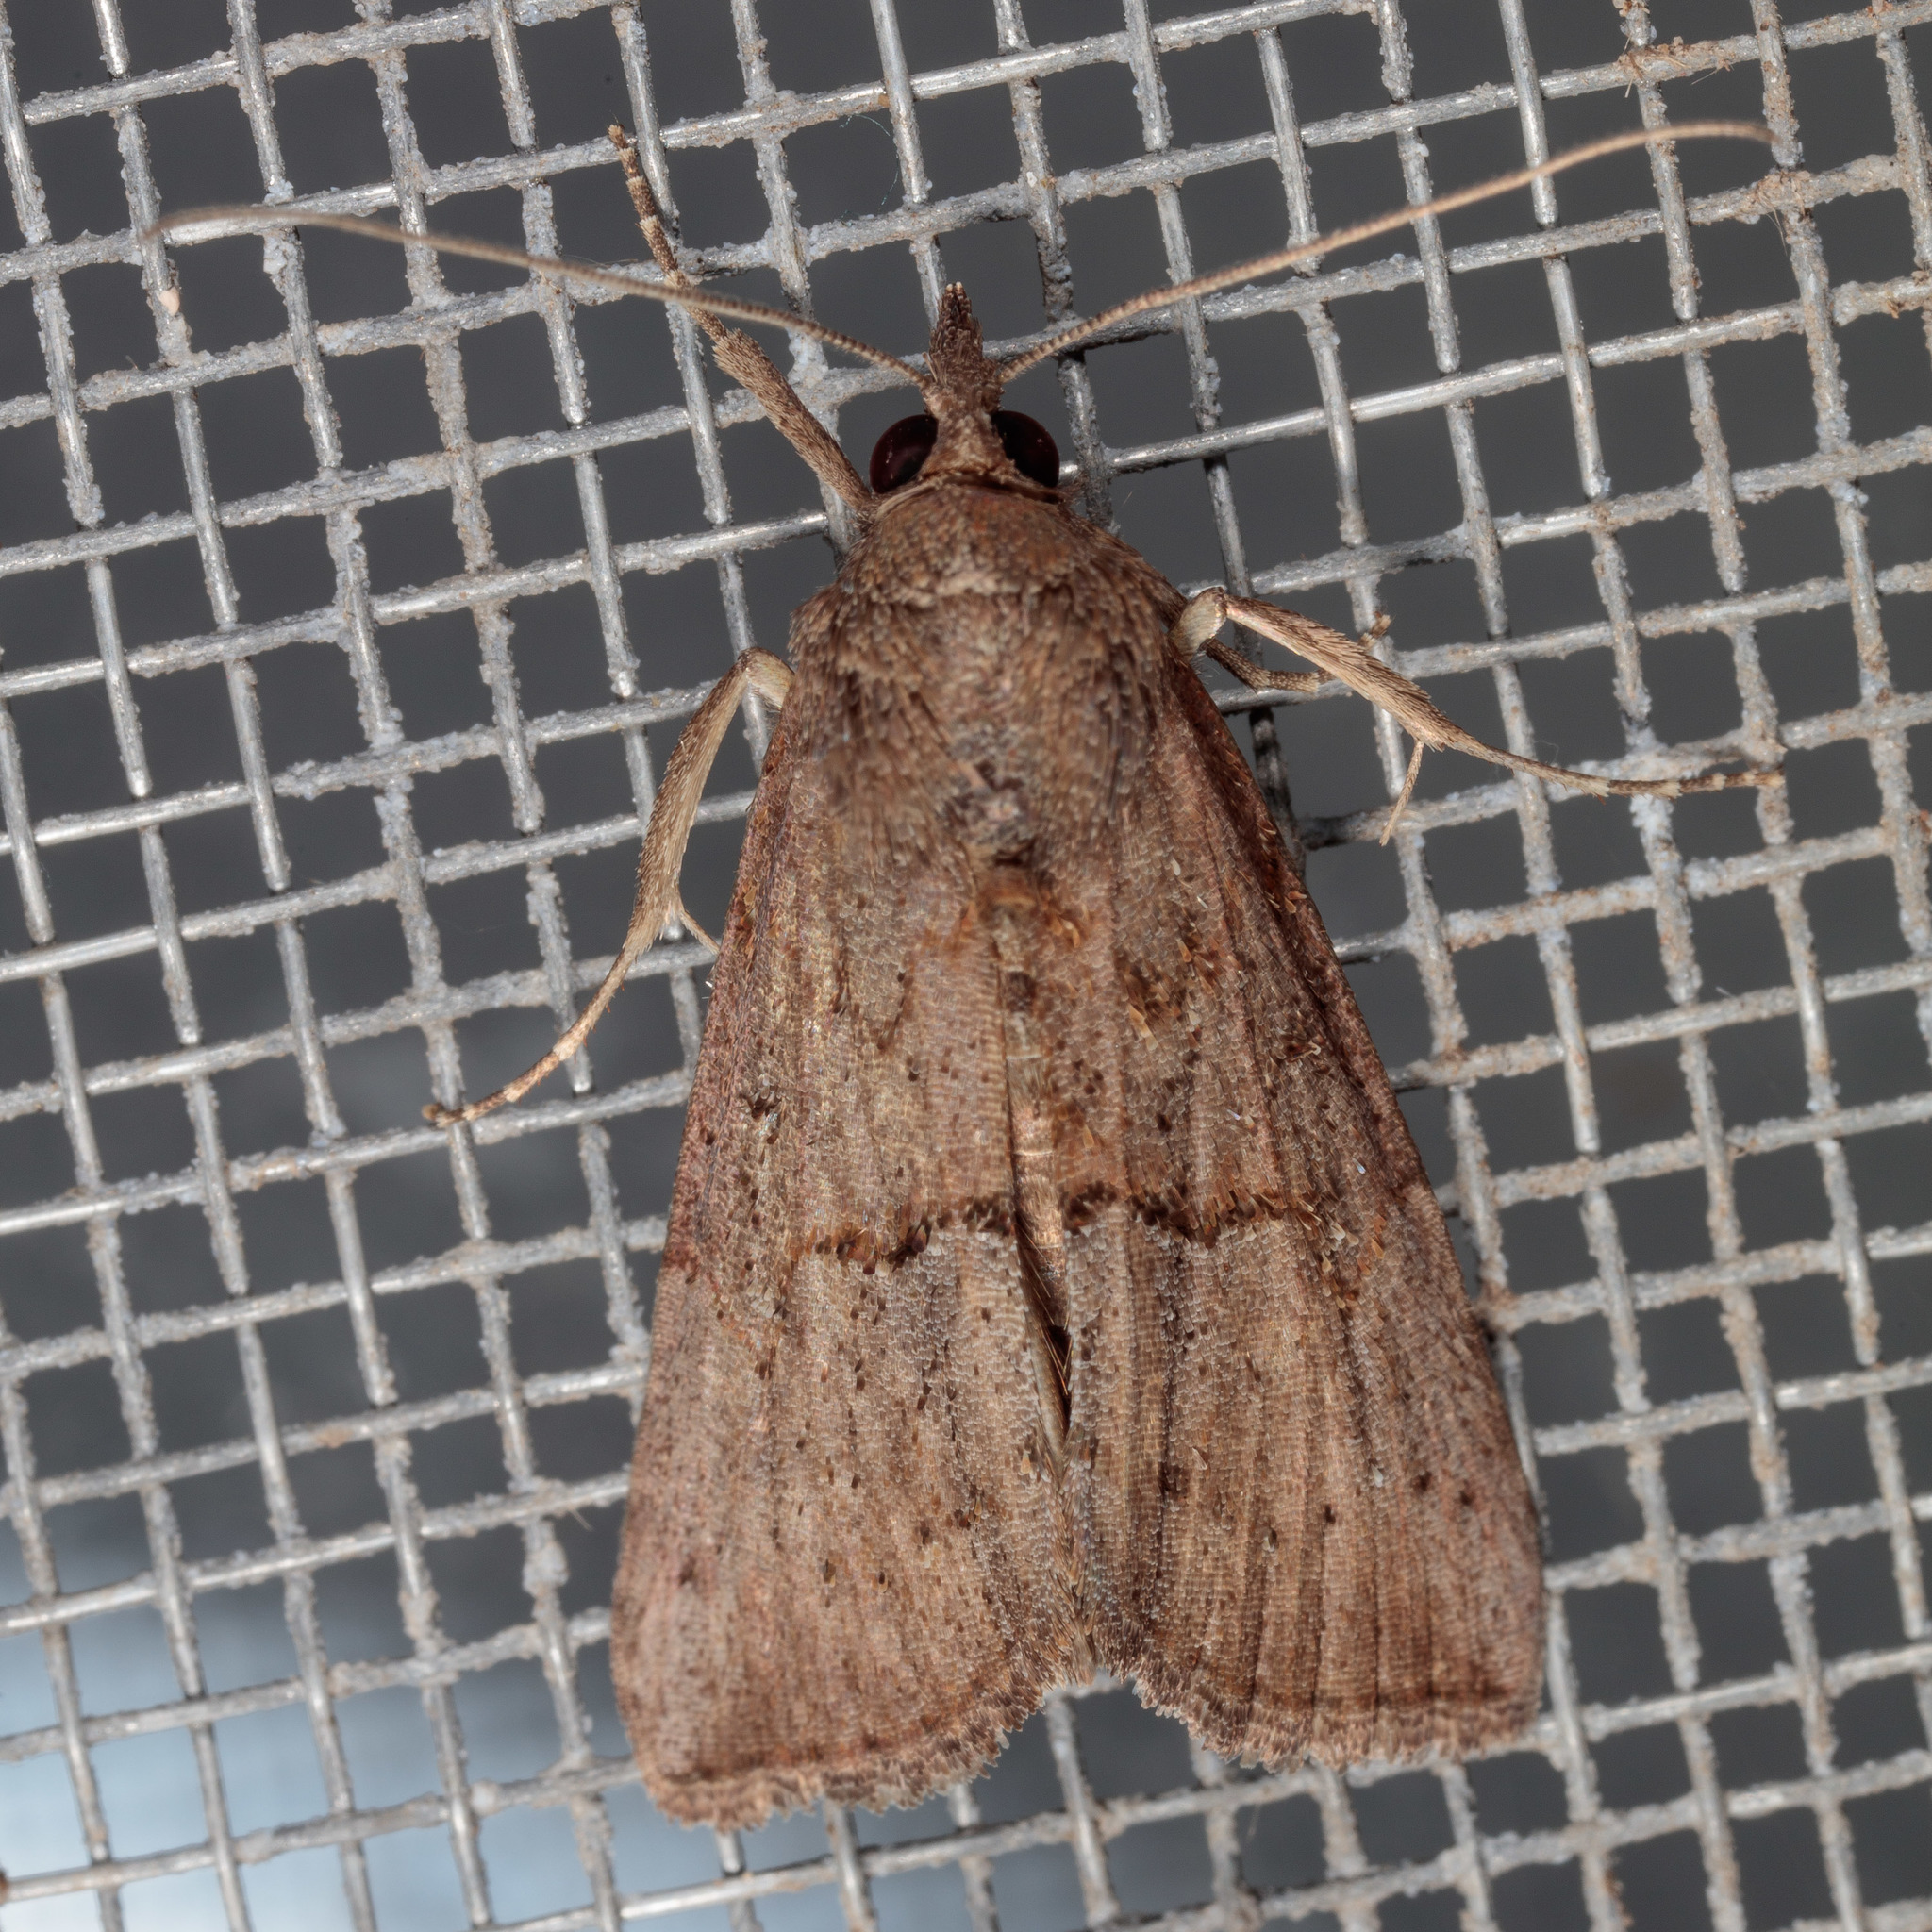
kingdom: Animalia
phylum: Arthropoda
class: Insecta
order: Lepidoptera
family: Erebidae
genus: Hypena
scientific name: Hypena scabra
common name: Green cloverworm
